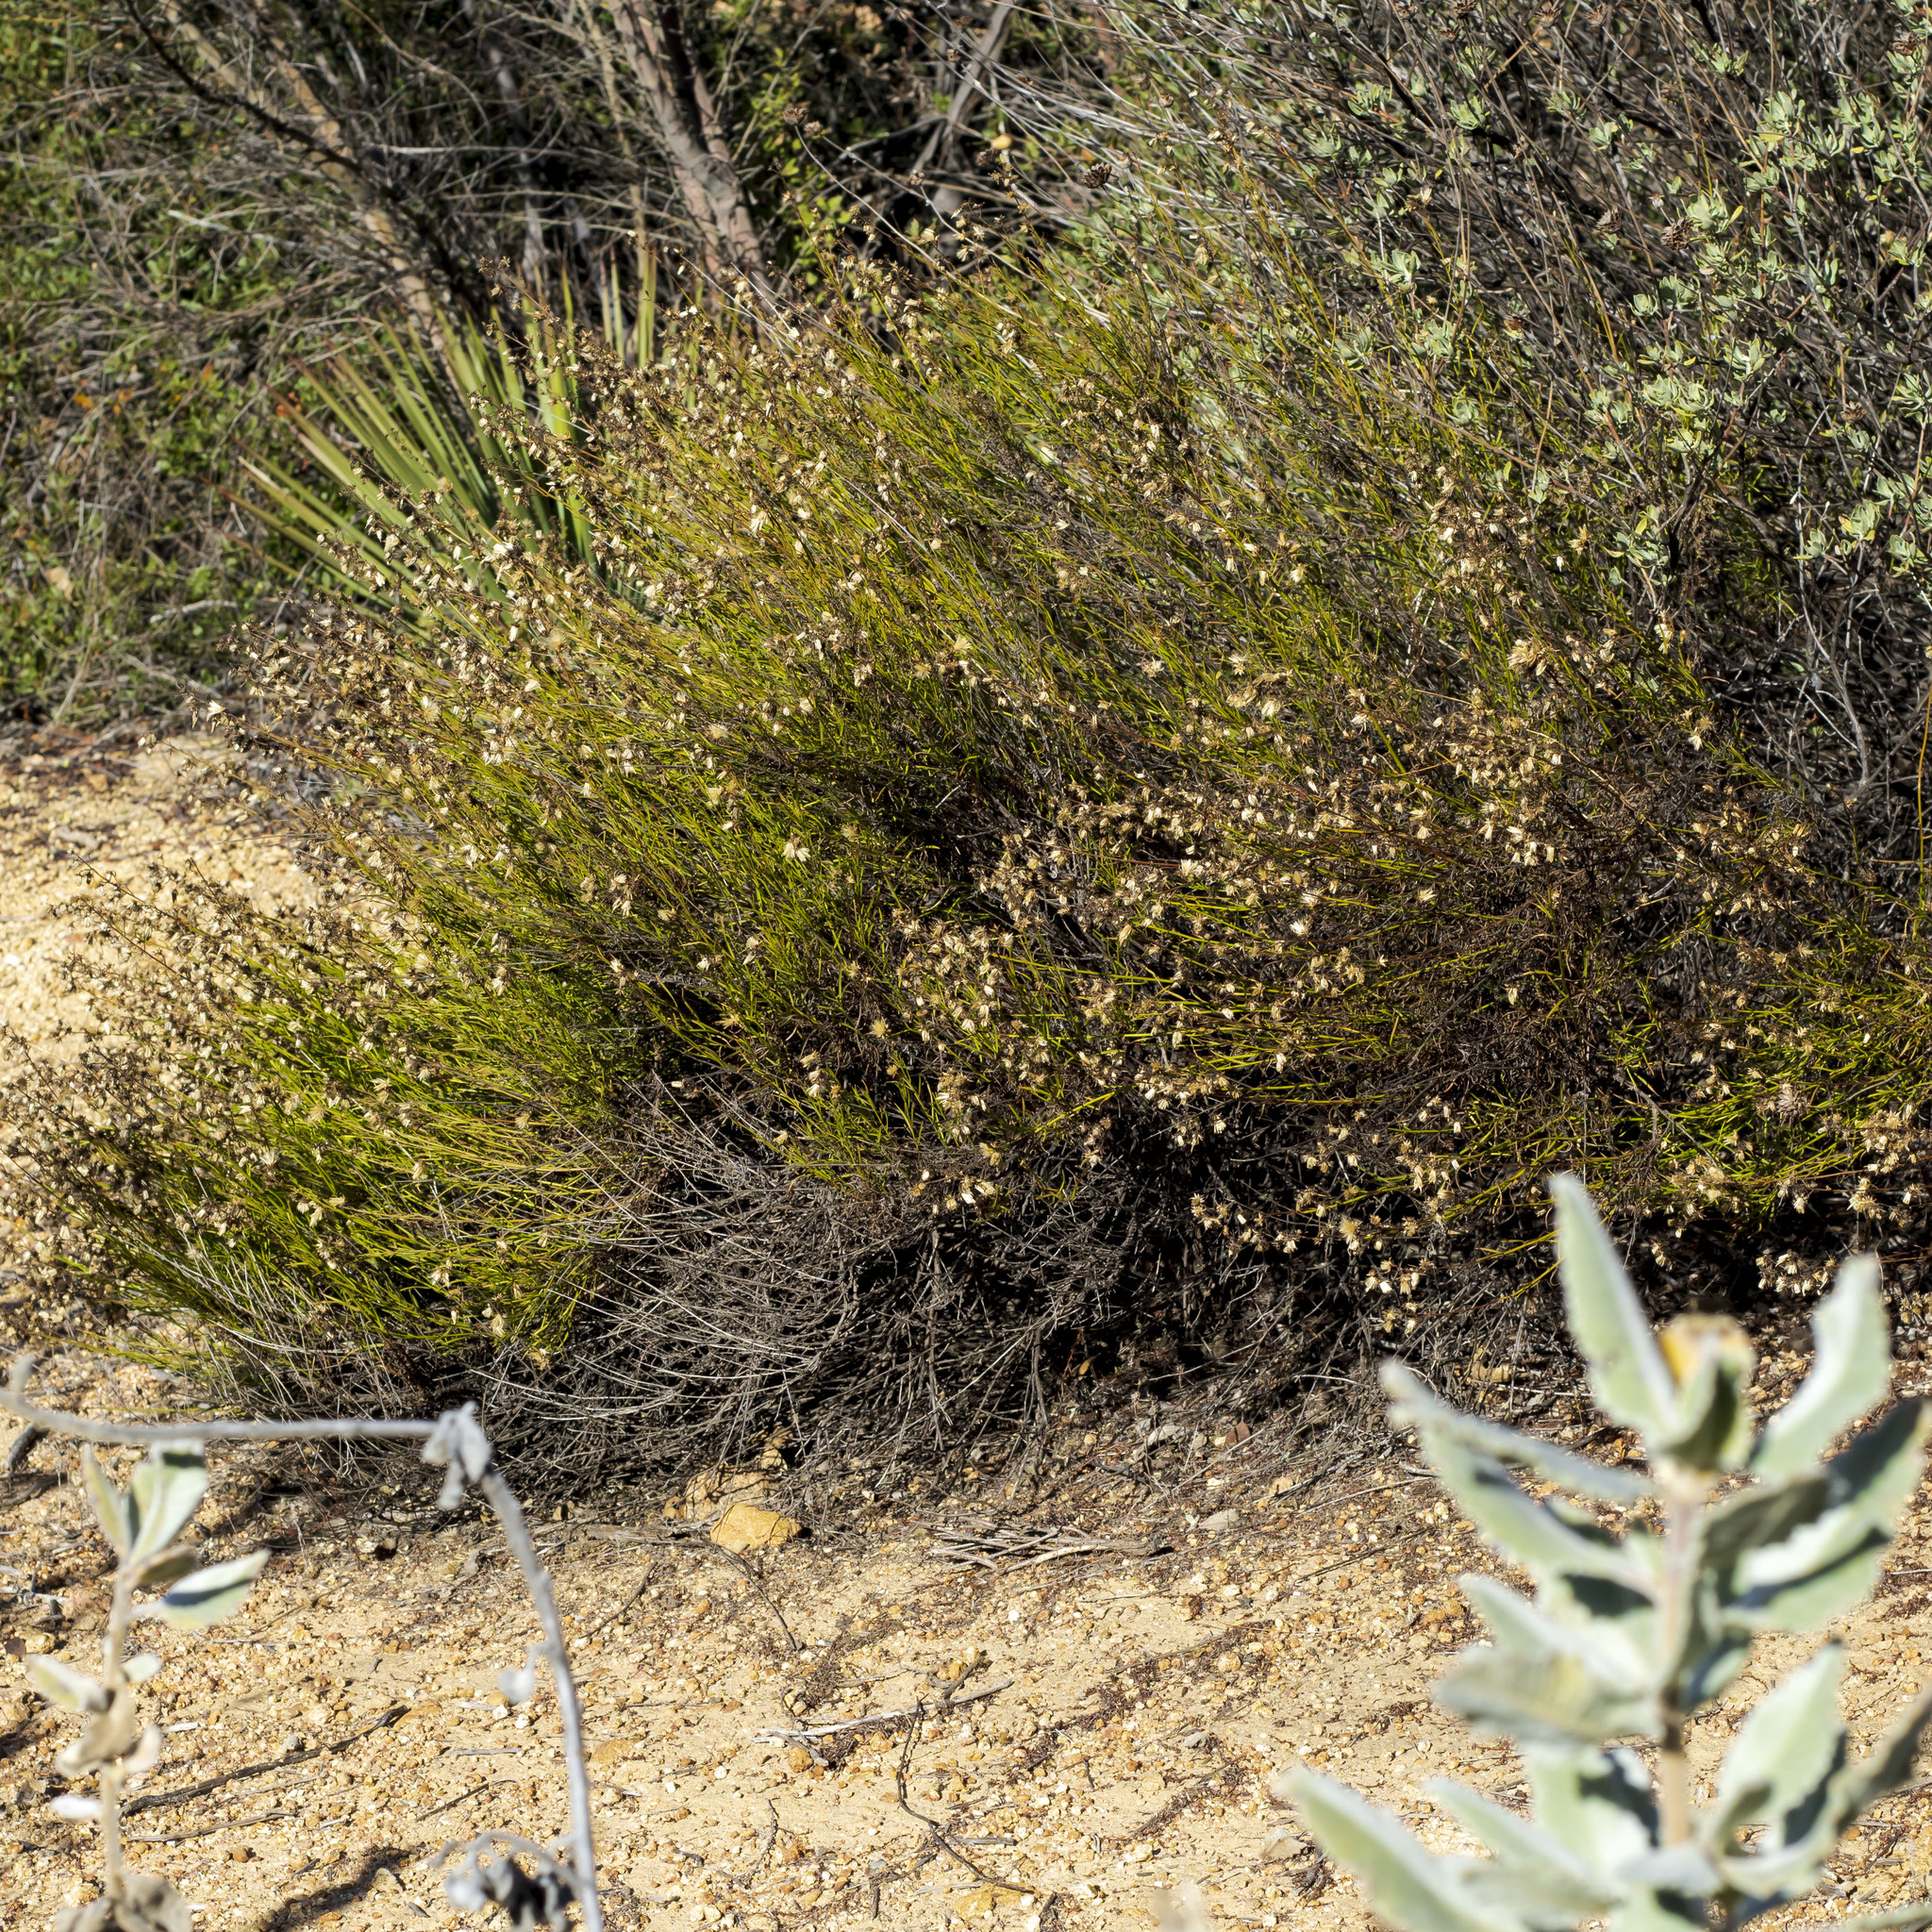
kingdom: Plantae
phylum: Tracheophyta
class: Magnoliopsida
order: Asterales
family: Asteraceae
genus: Baccharis
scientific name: Baccharis vanessae
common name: Encinitas baccharis
